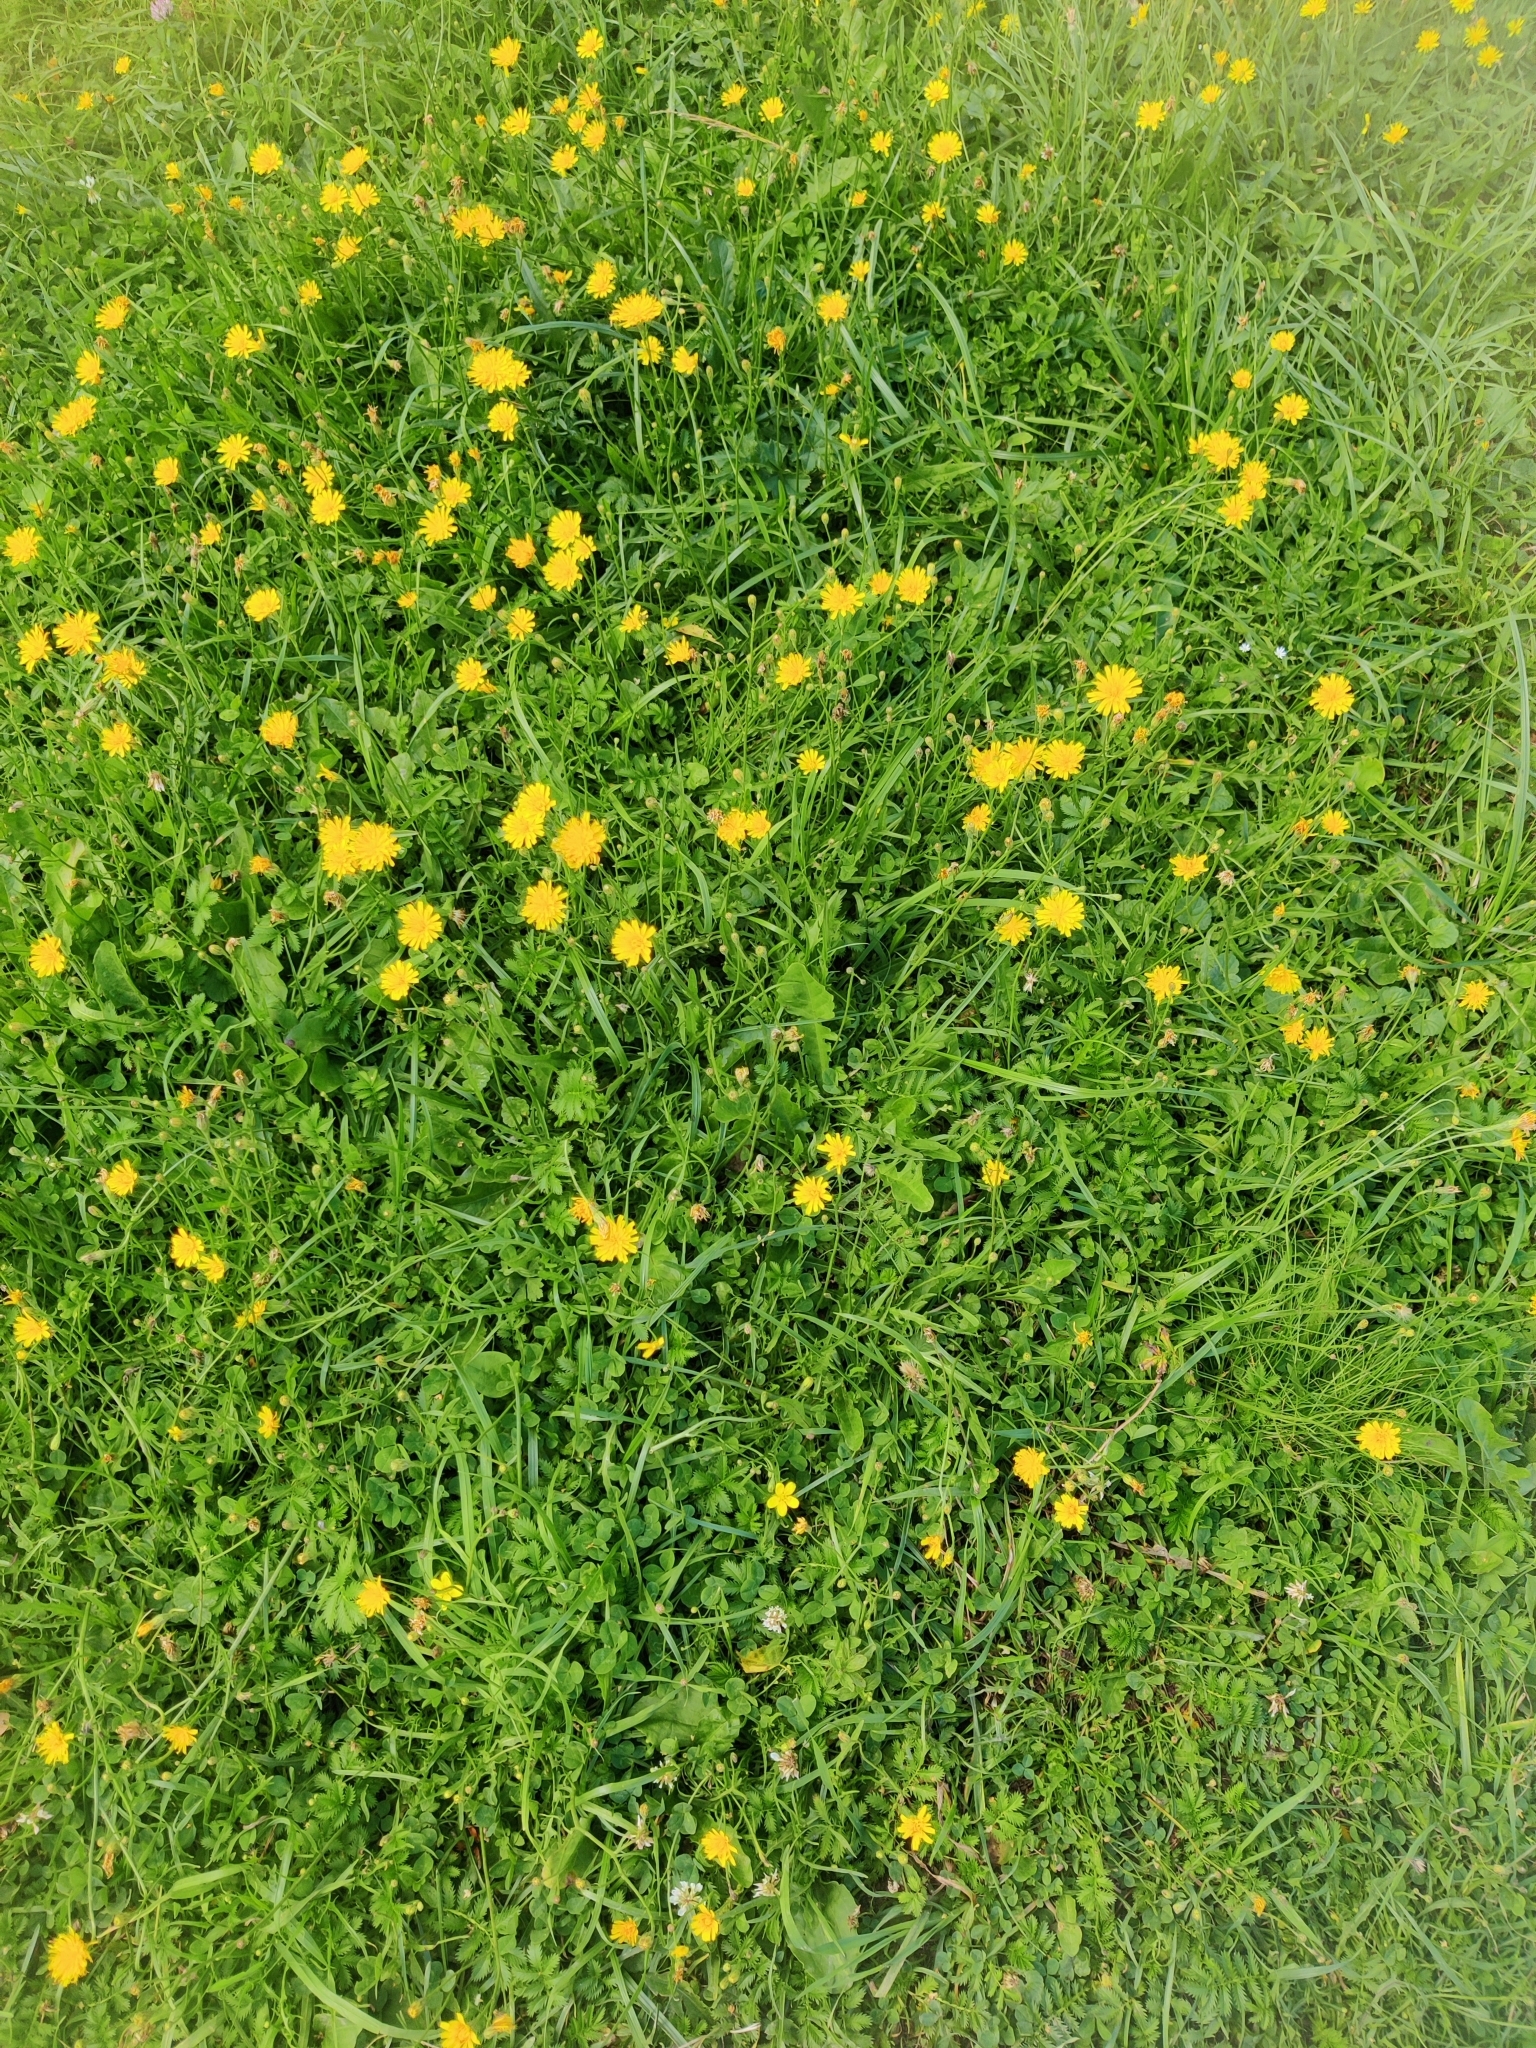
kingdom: Plantae
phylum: Tracheophyta
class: Magnoliopsida
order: Asterales
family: Asteraceae
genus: Scorzoneroides
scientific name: Scorzoneroides autumnalis
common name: Autumn hawkbit
